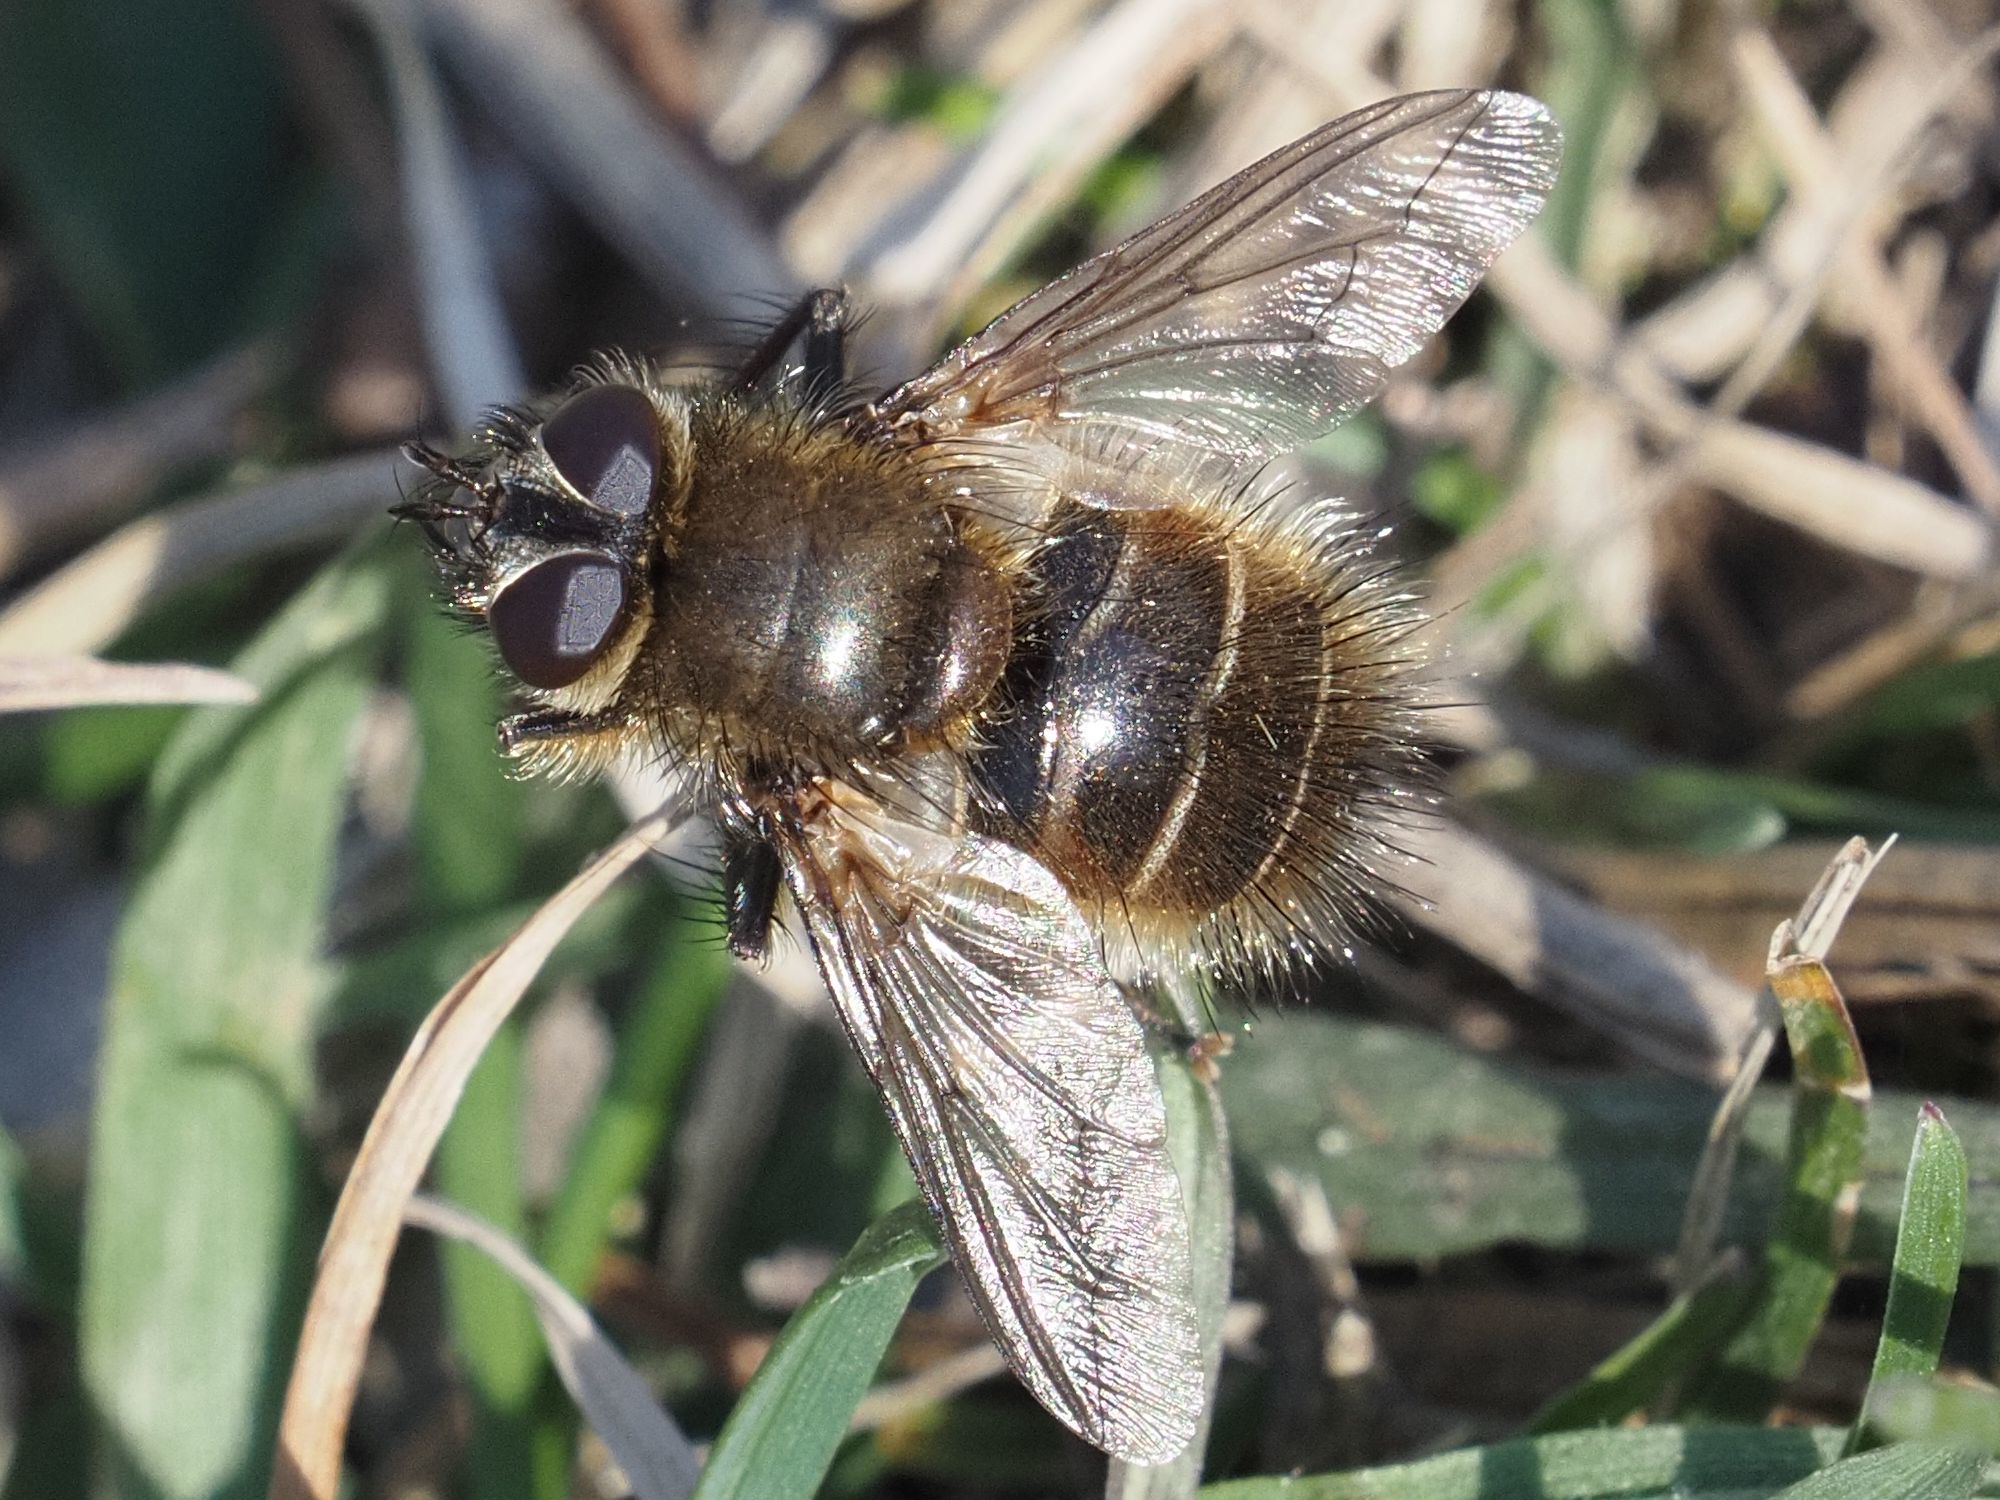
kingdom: Animalia
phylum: Arthropoda
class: Insecta
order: Diptera
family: Tachinidae
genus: Tachina
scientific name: Tachina ursina
